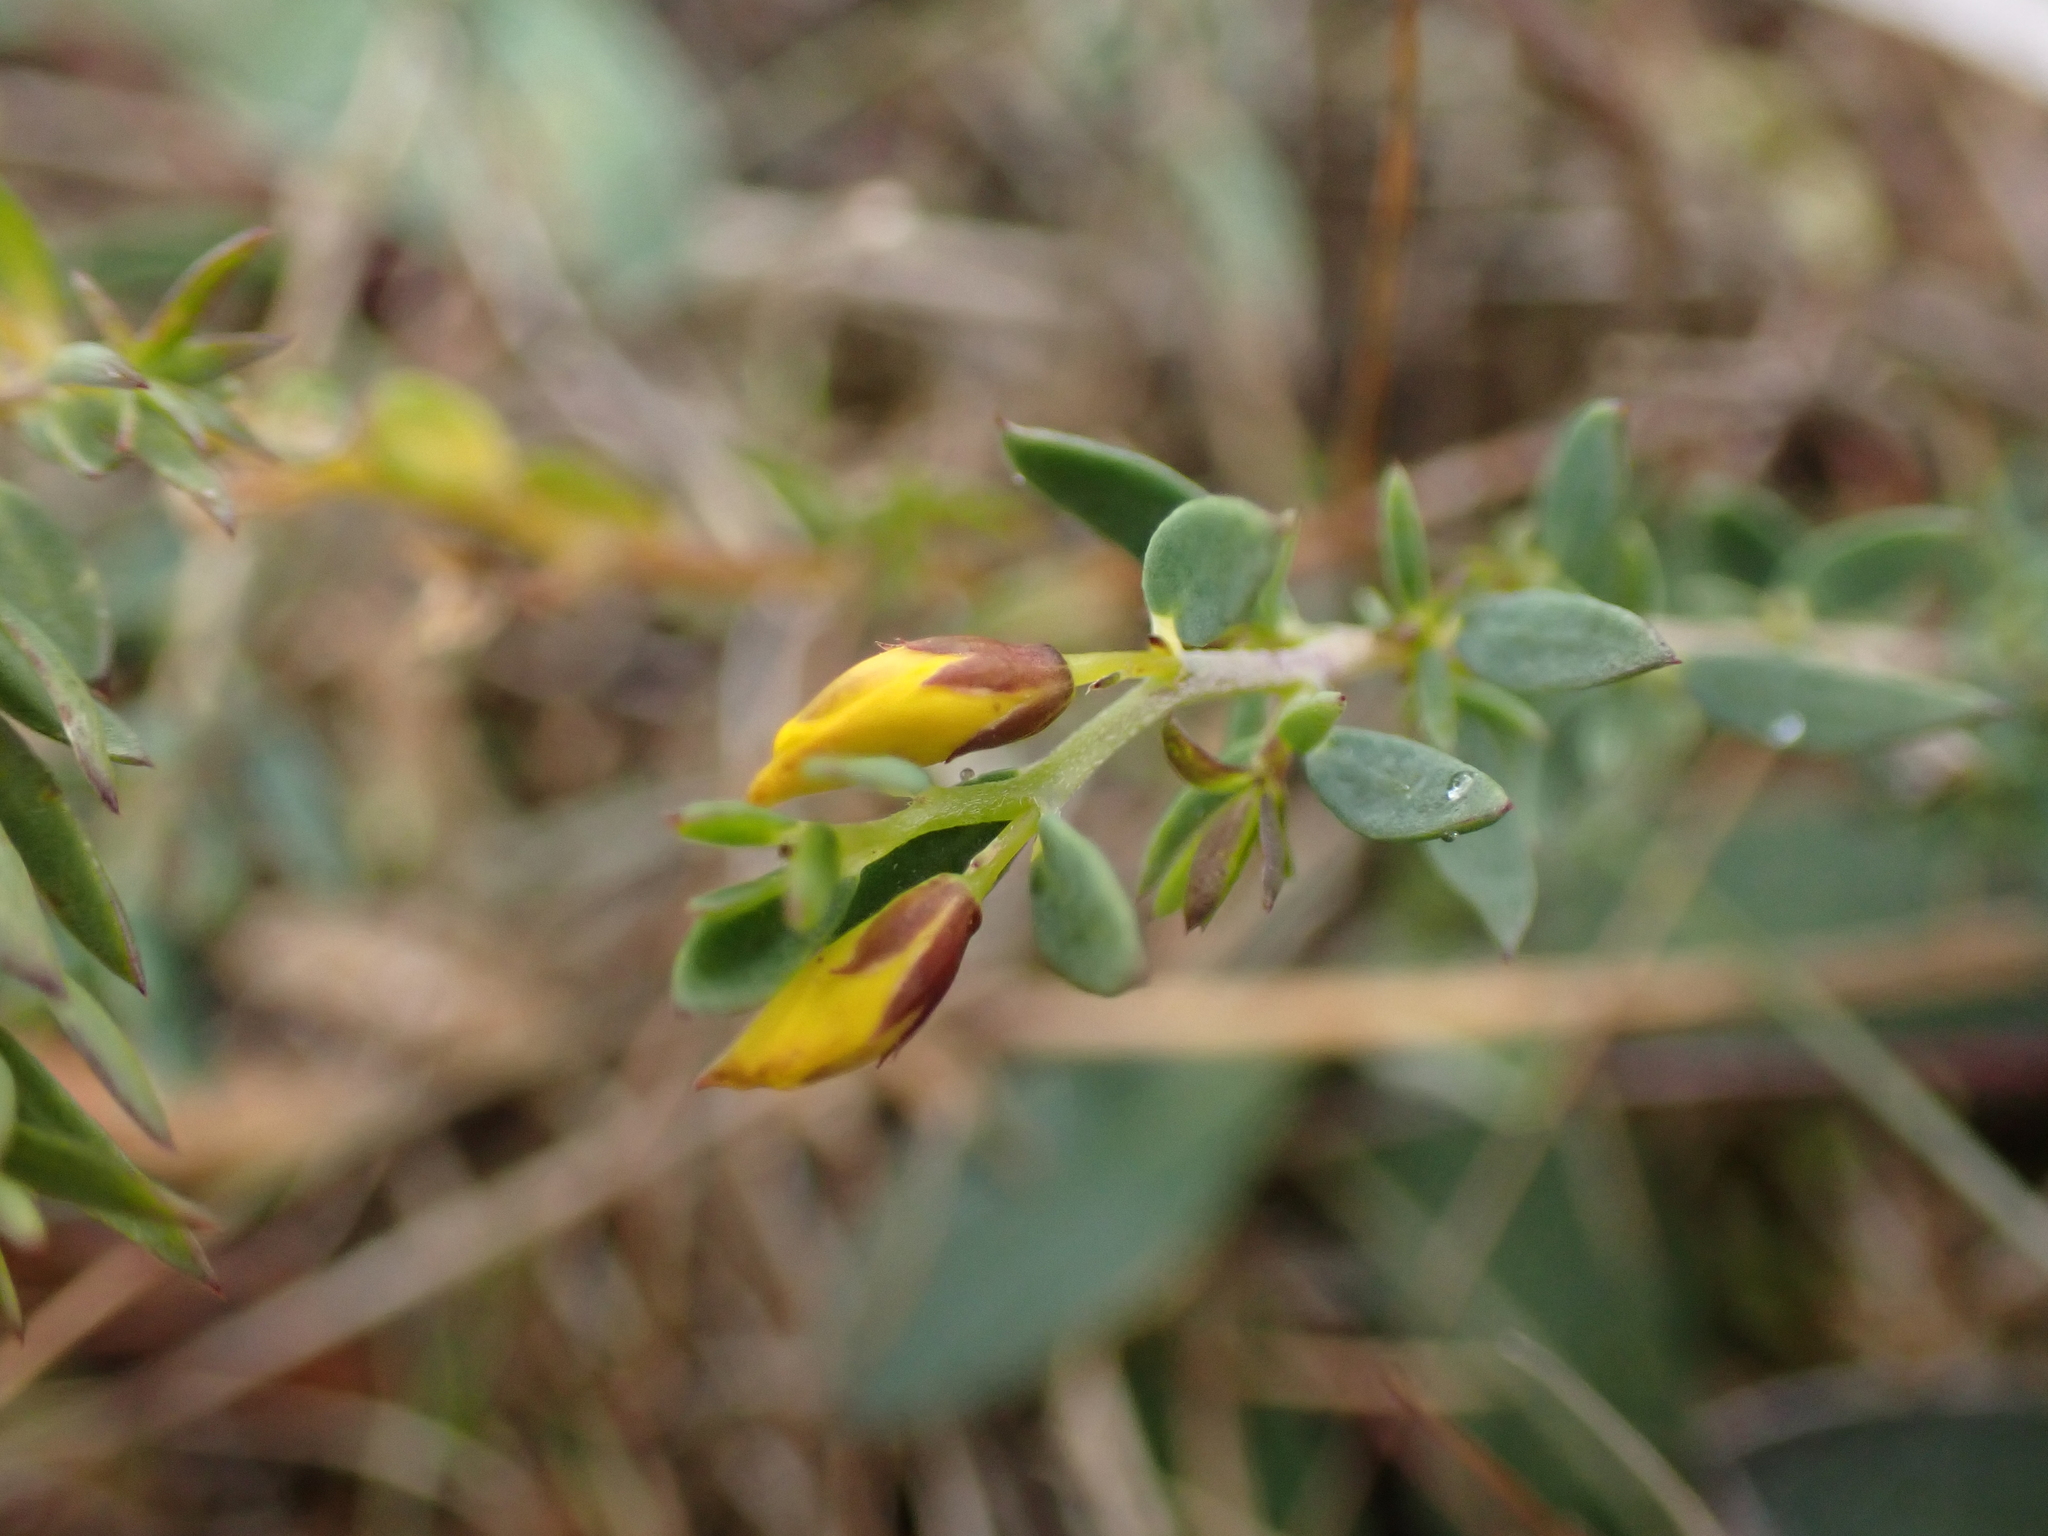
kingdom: Plantae
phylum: Tracheophyta
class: Magnoliopsida
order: Fabales
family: Fabaceae
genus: Genista
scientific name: Genista anglica
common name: Petty whin
